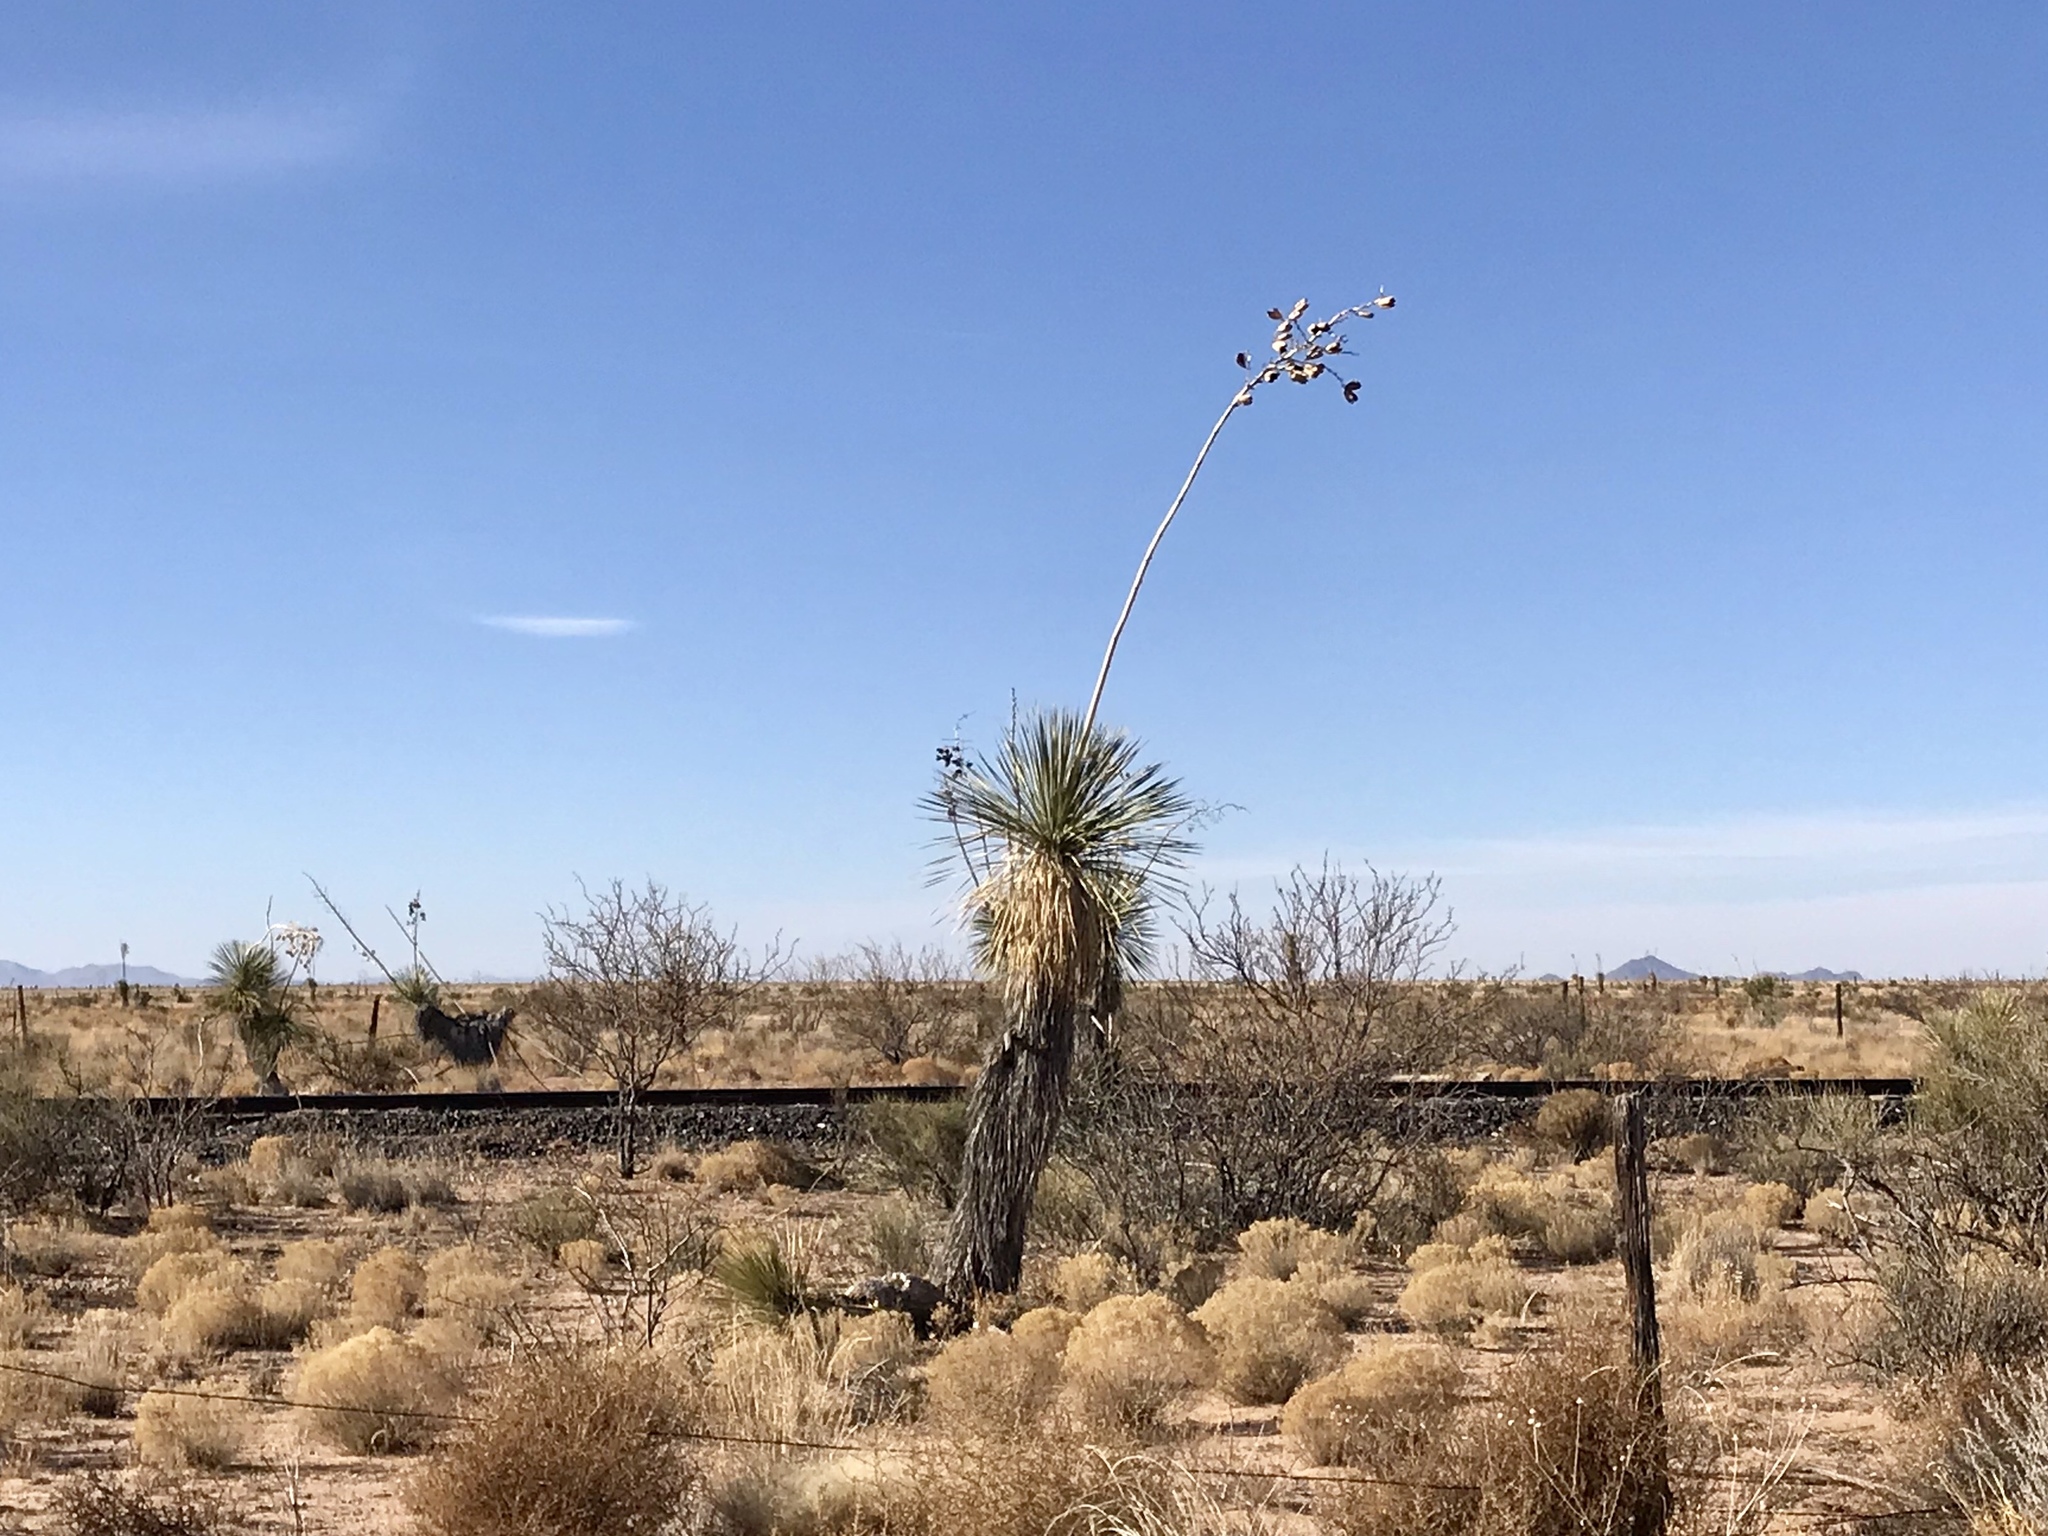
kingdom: Plantae
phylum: Tracheophyta
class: Liliopsida
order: Asparagales
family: Asparagaceae
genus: Yucca
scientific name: Yucca elata
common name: Palmella
